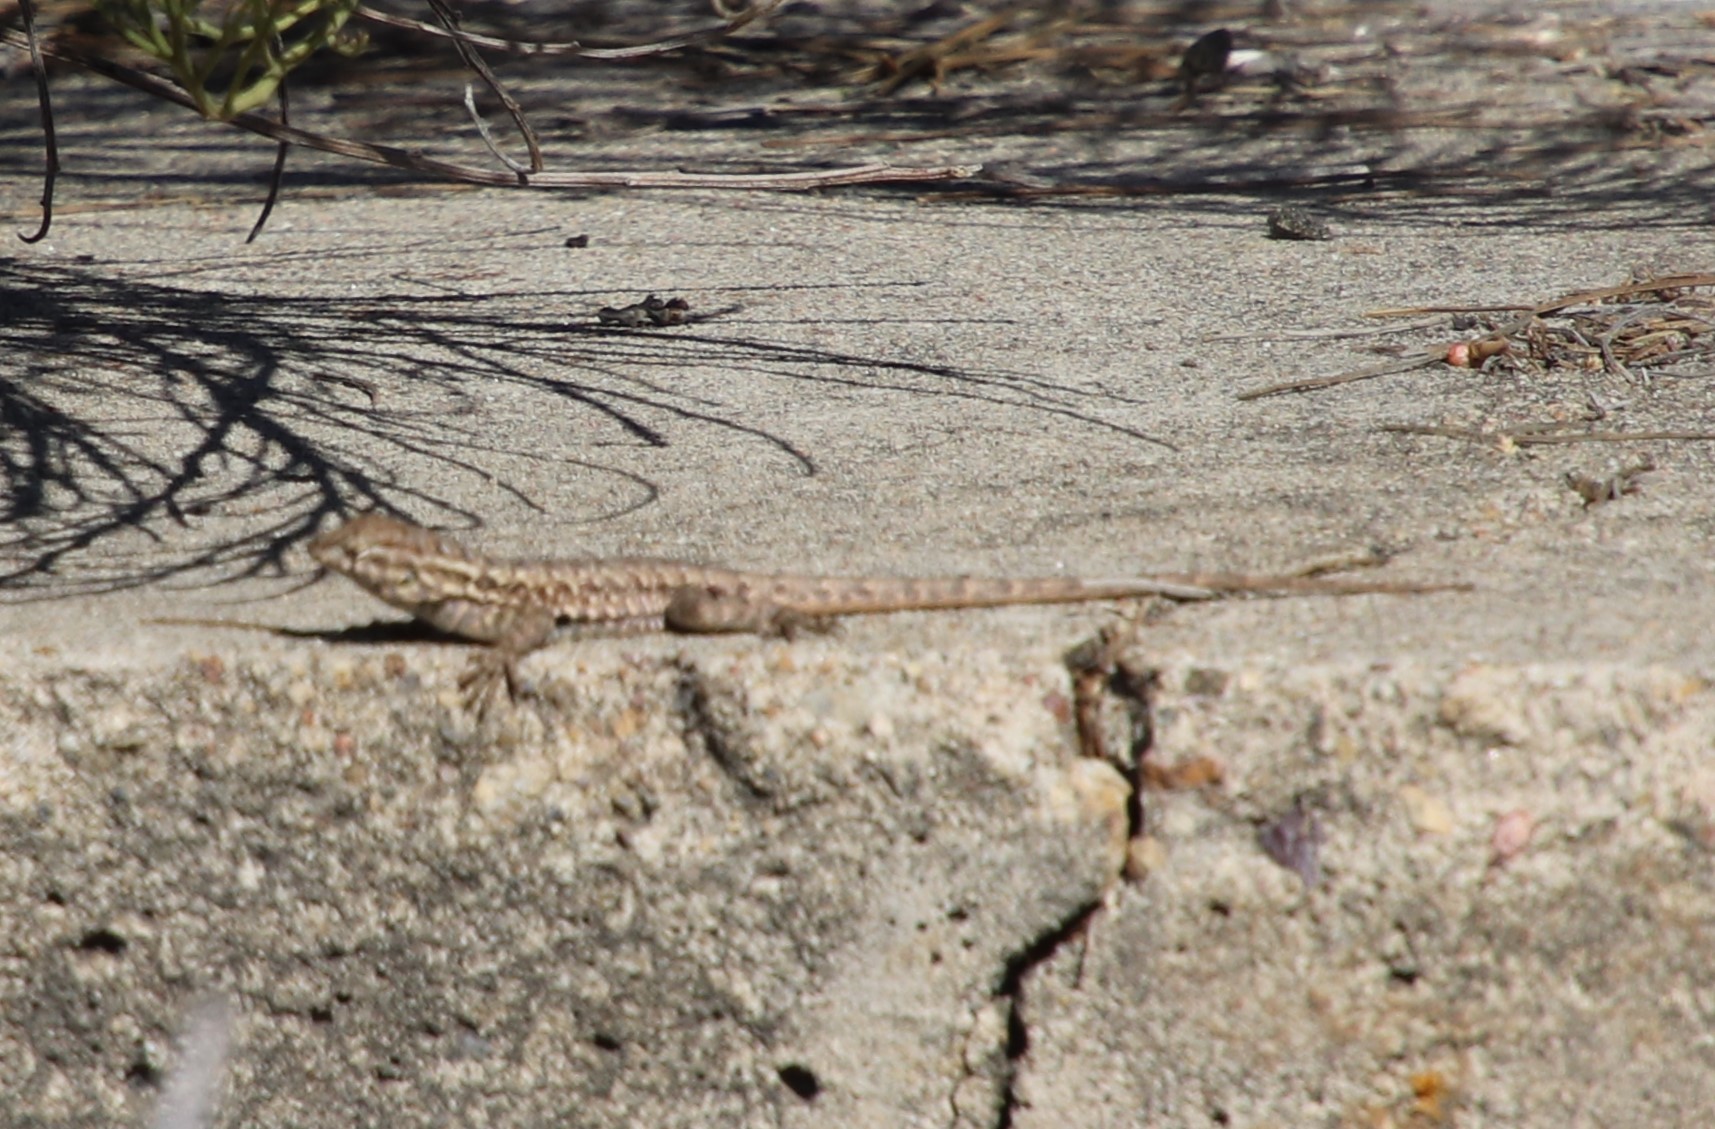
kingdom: Animalia
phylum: Chordata
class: Squamata
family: Phrynosomatidae
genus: Uta
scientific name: Uta stansburiana
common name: Side-blotched lizard
